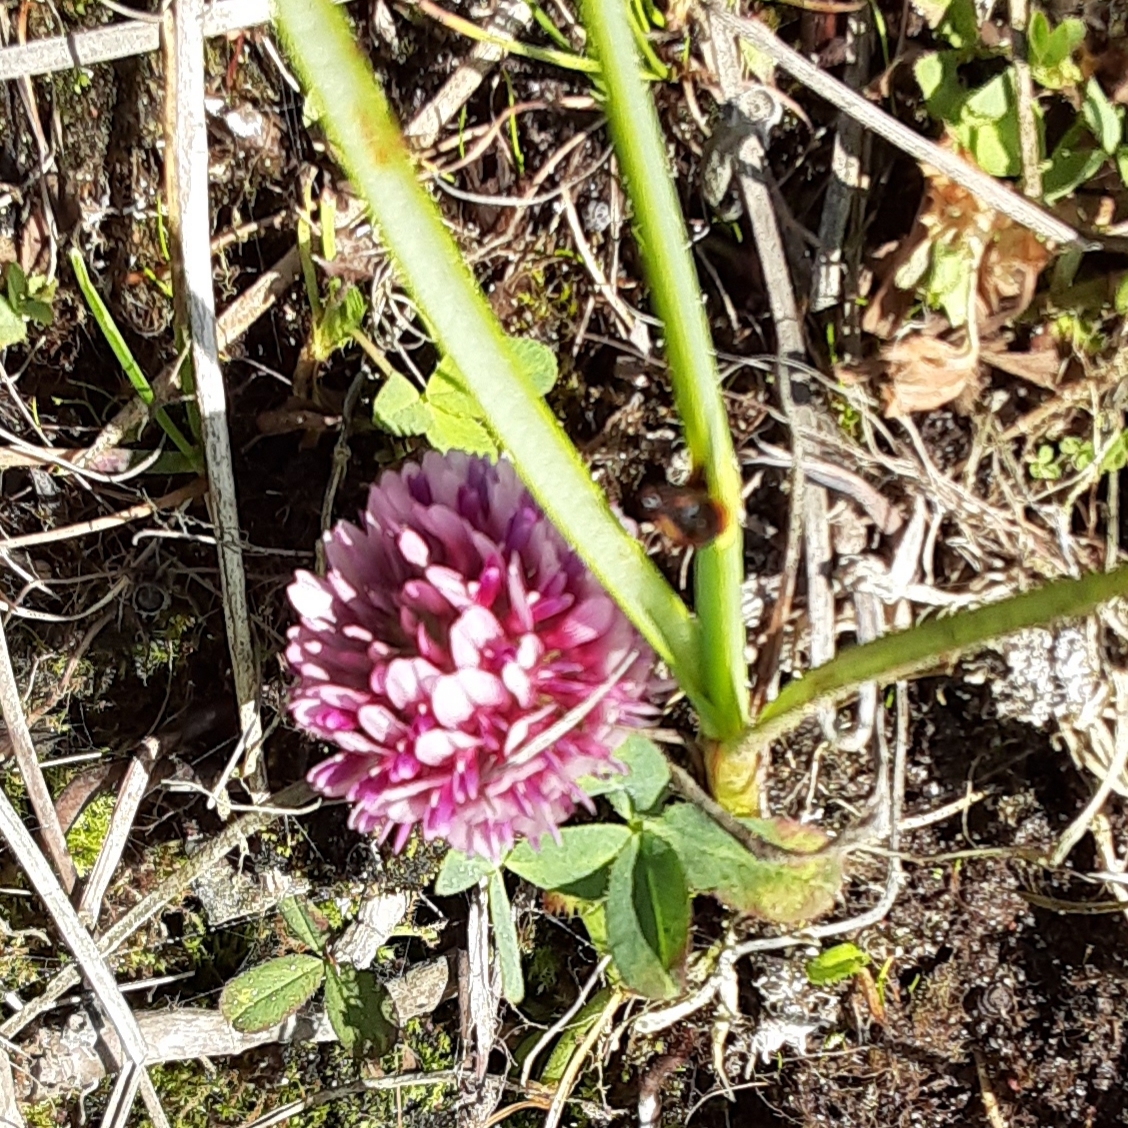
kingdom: Plantae
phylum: Tracheophyta
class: Magnoliopsida
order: Fabales
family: Fabaceae
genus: Trifolium
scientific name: Trifolium wormskioldii
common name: Springbank clover
